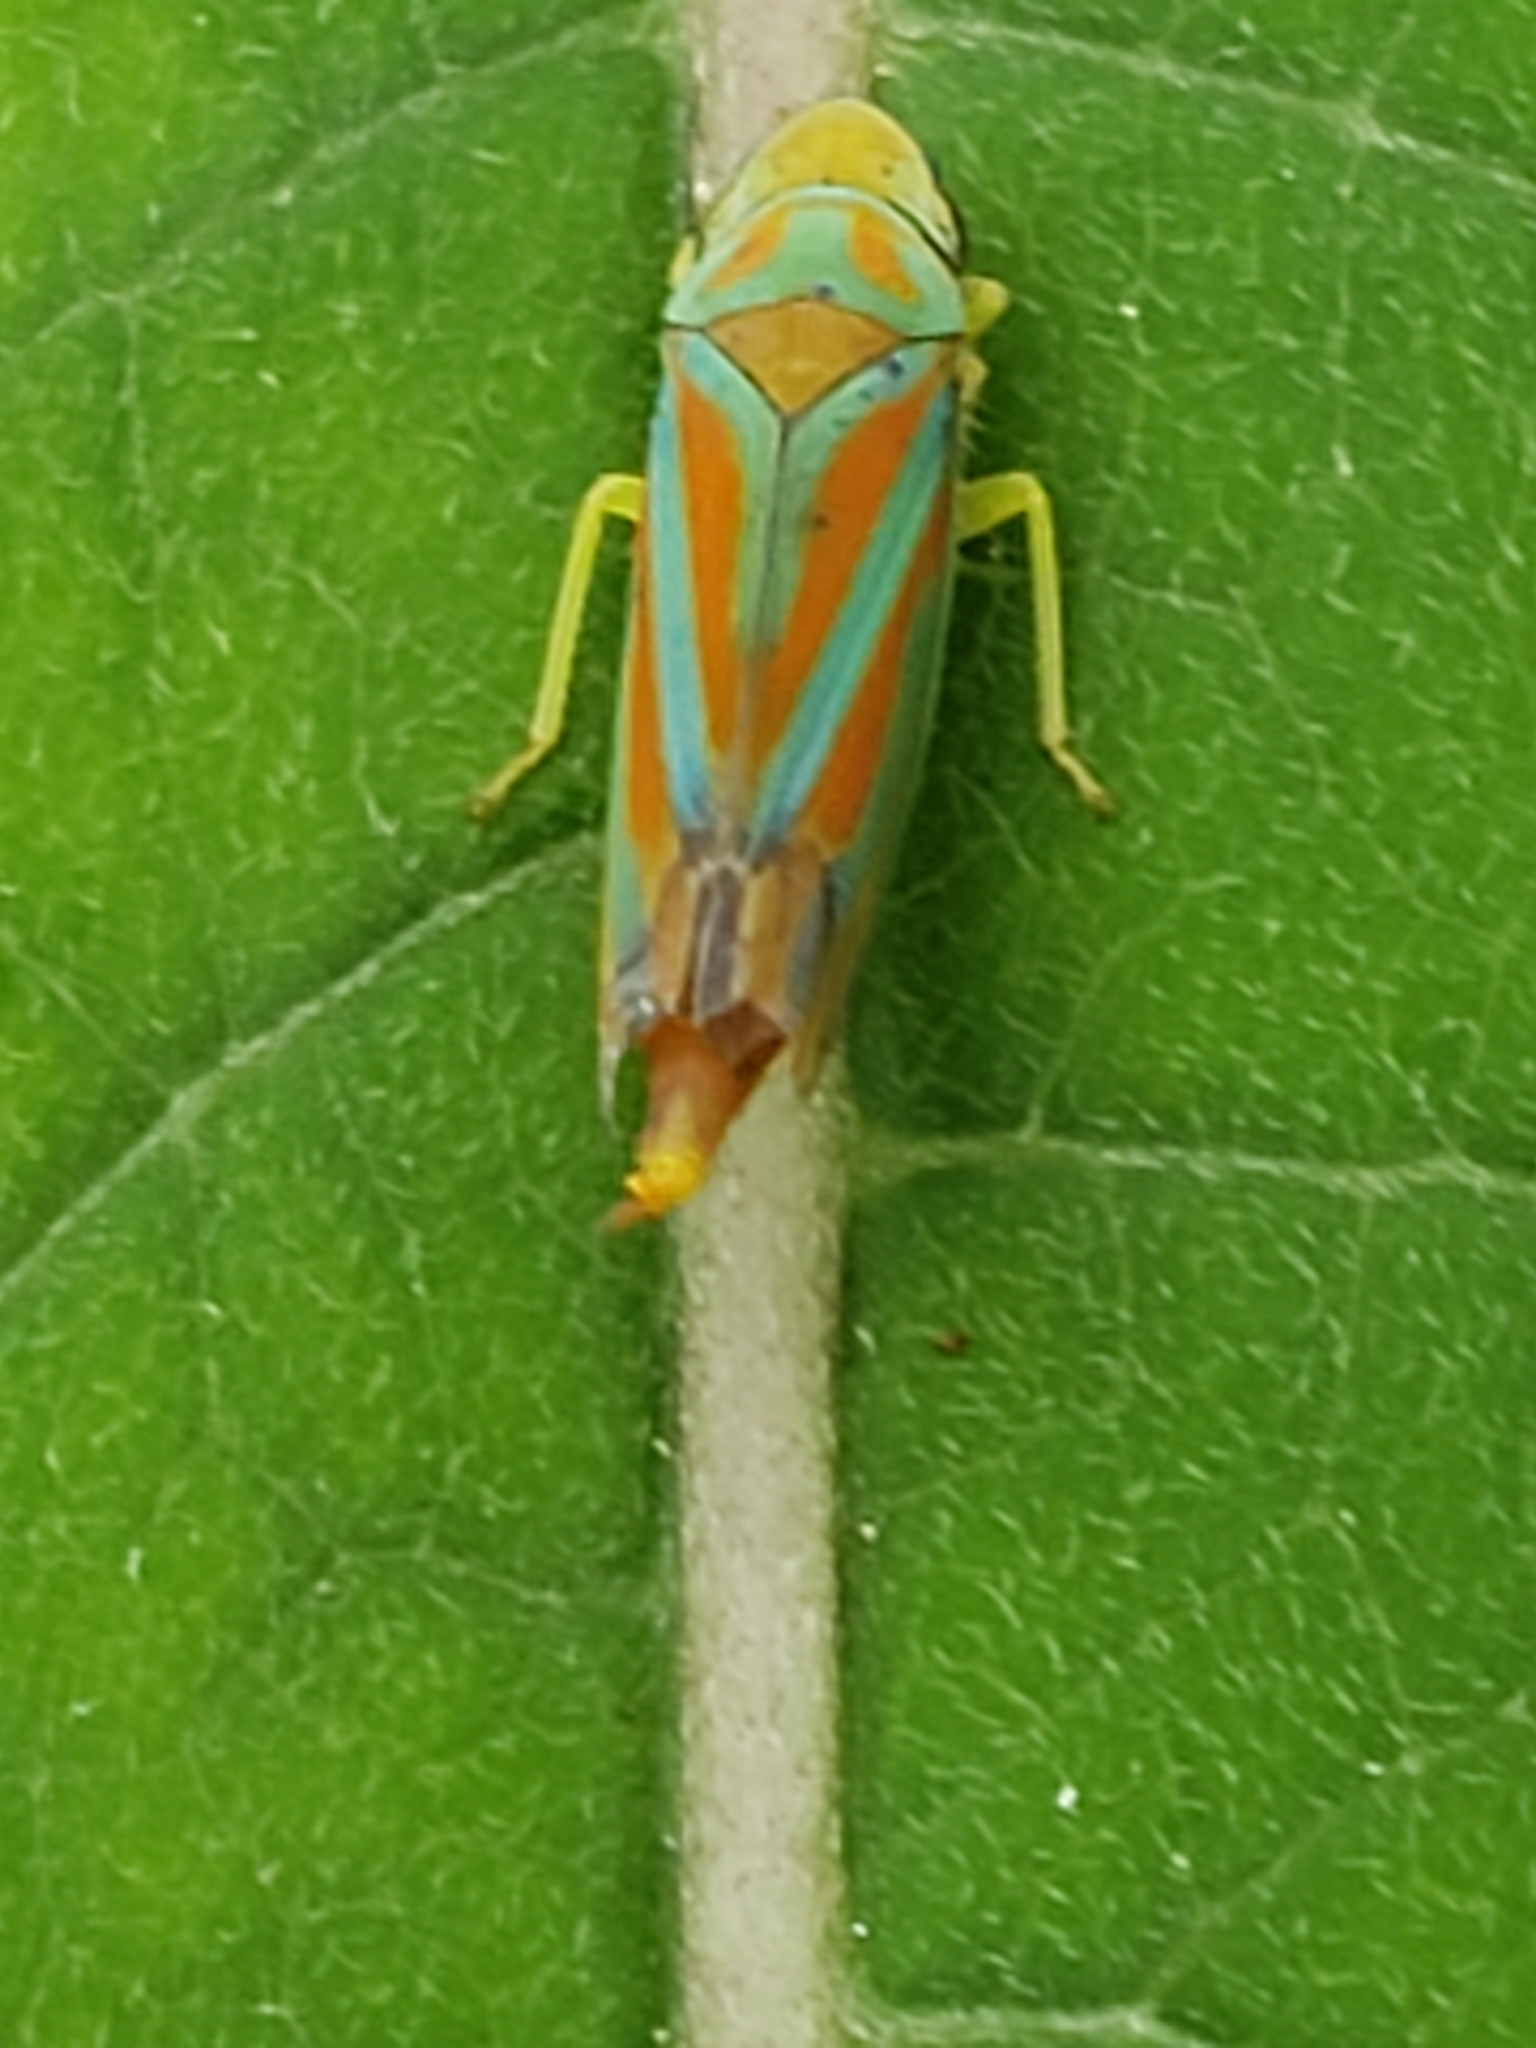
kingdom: Animalia
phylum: Arthropoda
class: Insecta
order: Hemiptera
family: Cicadellidae
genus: Graphocephala
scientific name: Graphocephala coccinea
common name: Candy-striped leafhopper
